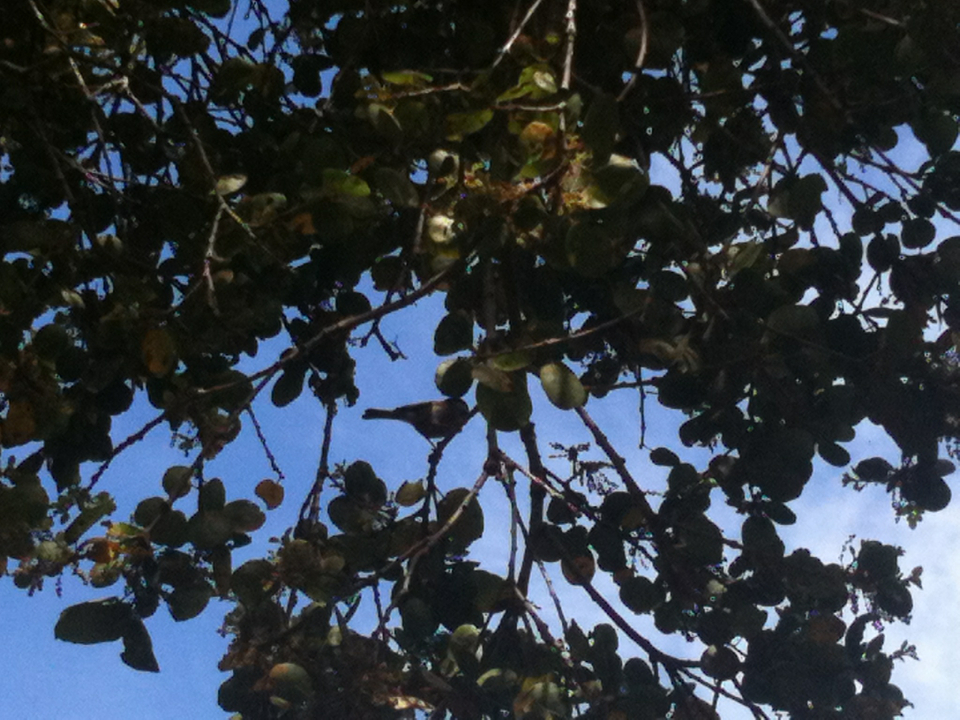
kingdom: Animalia
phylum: Chordata
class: Aves
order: Passeriformes
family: Paridae
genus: Poecile
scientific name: Poecile rufescens
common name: Chestnut-backed chickadee
